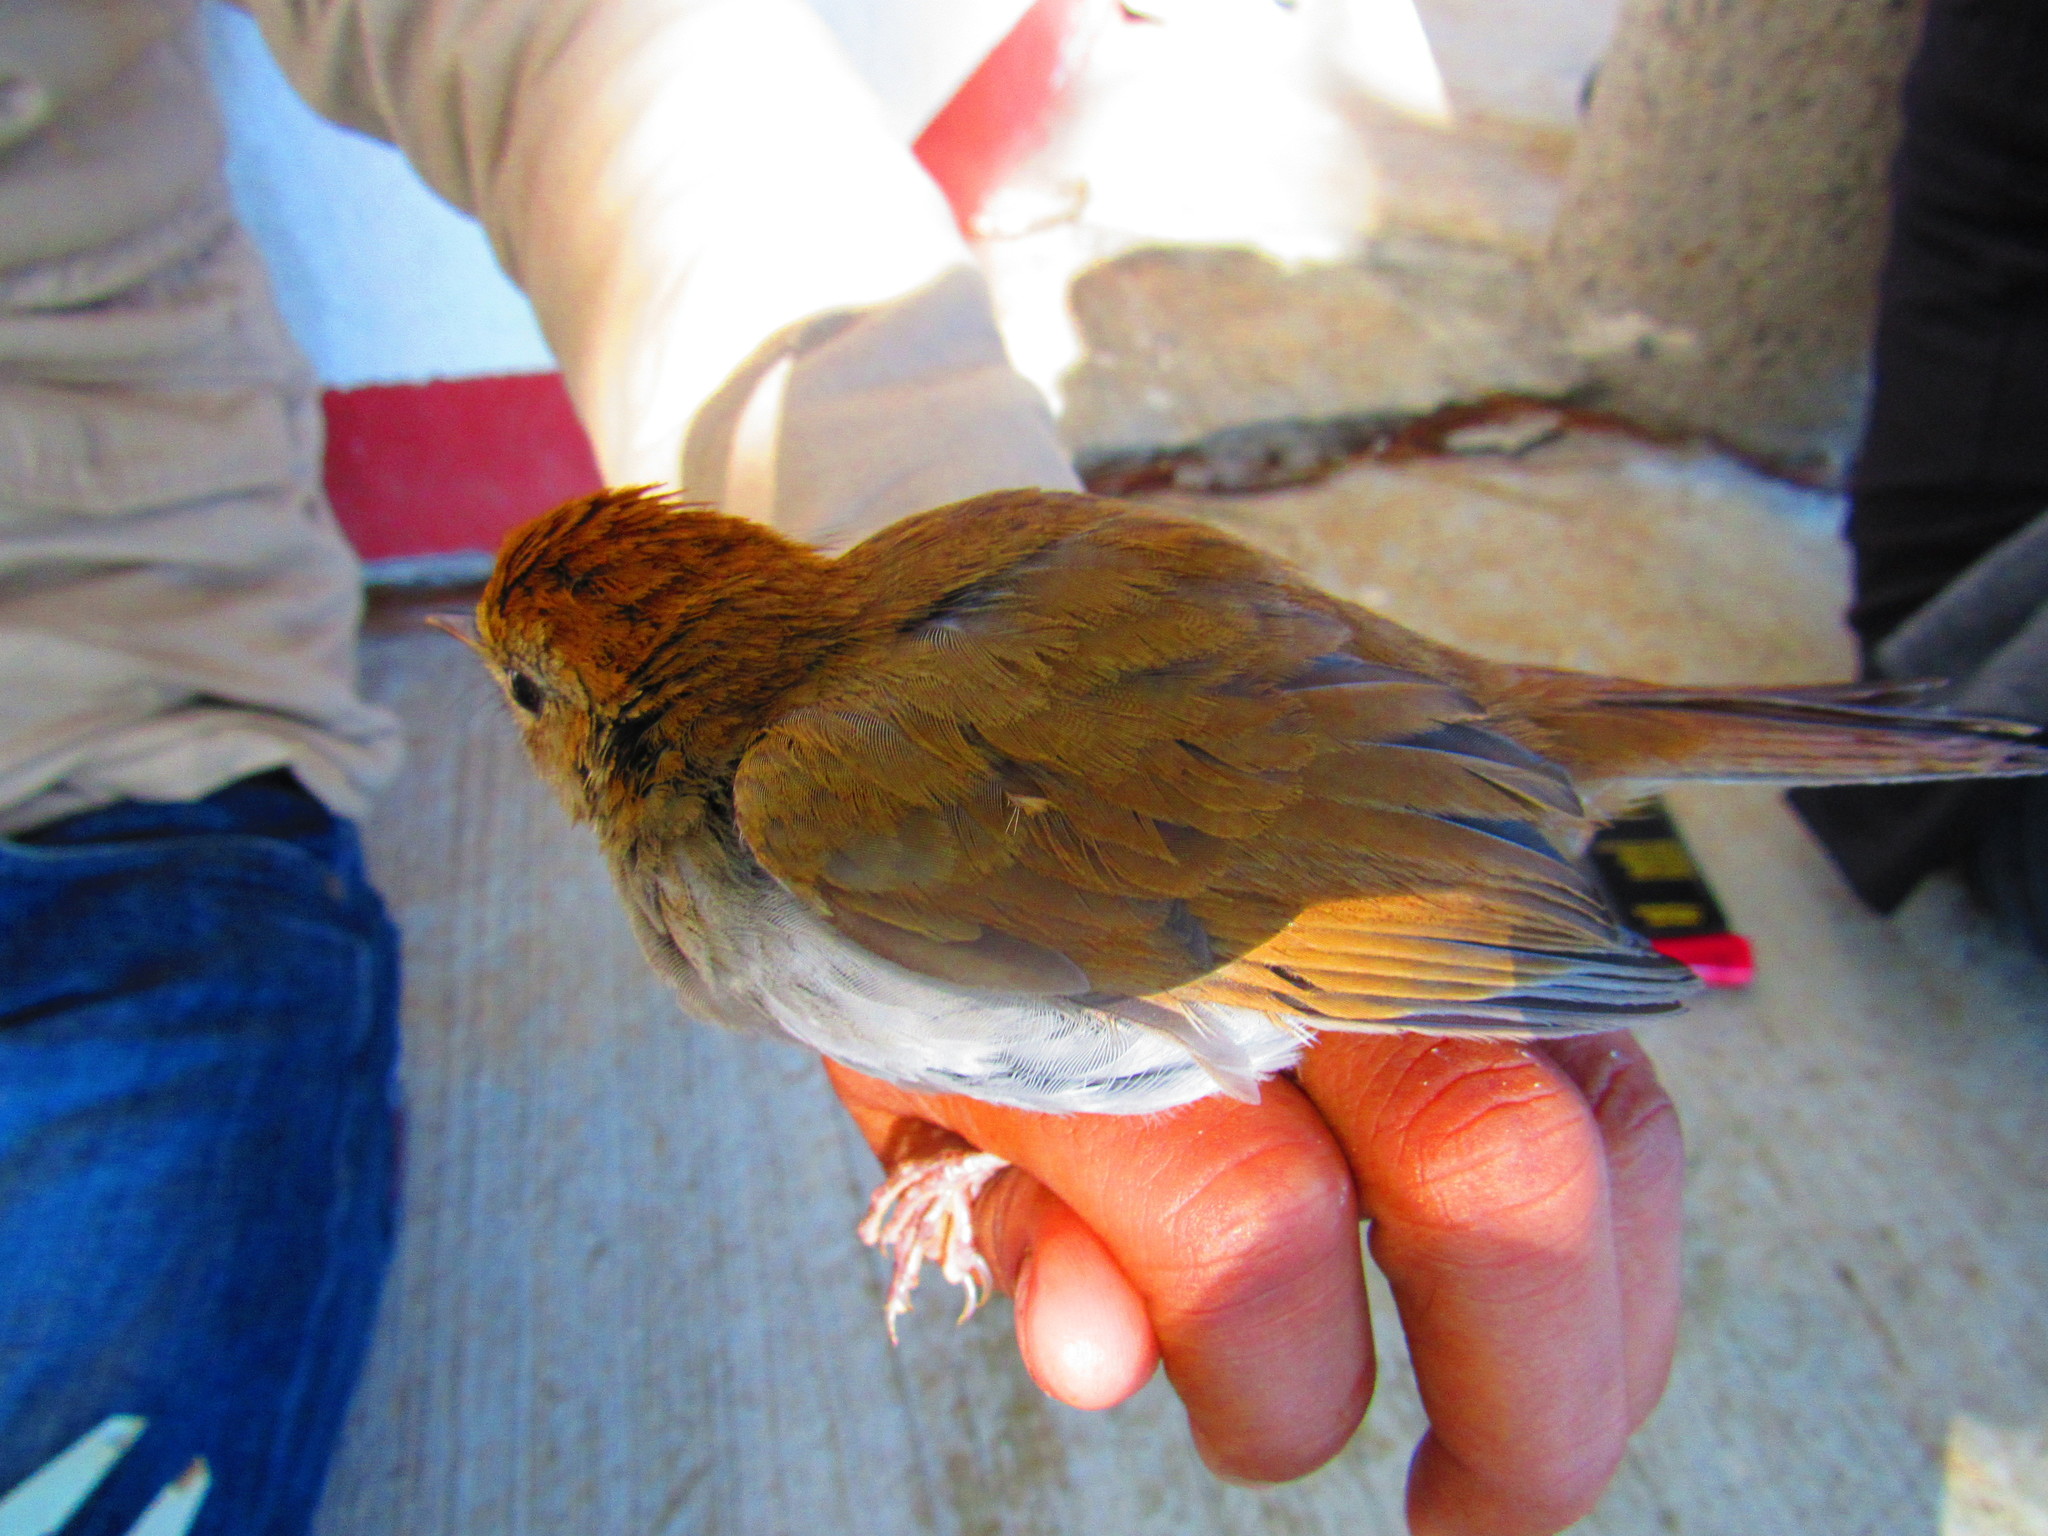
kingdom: Animalia
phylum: Chordata
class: Aves
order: Passeriformes
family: Turdidae
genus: Catharus
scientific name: Catharus occidentalis
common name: Russet nightingale-thrush
